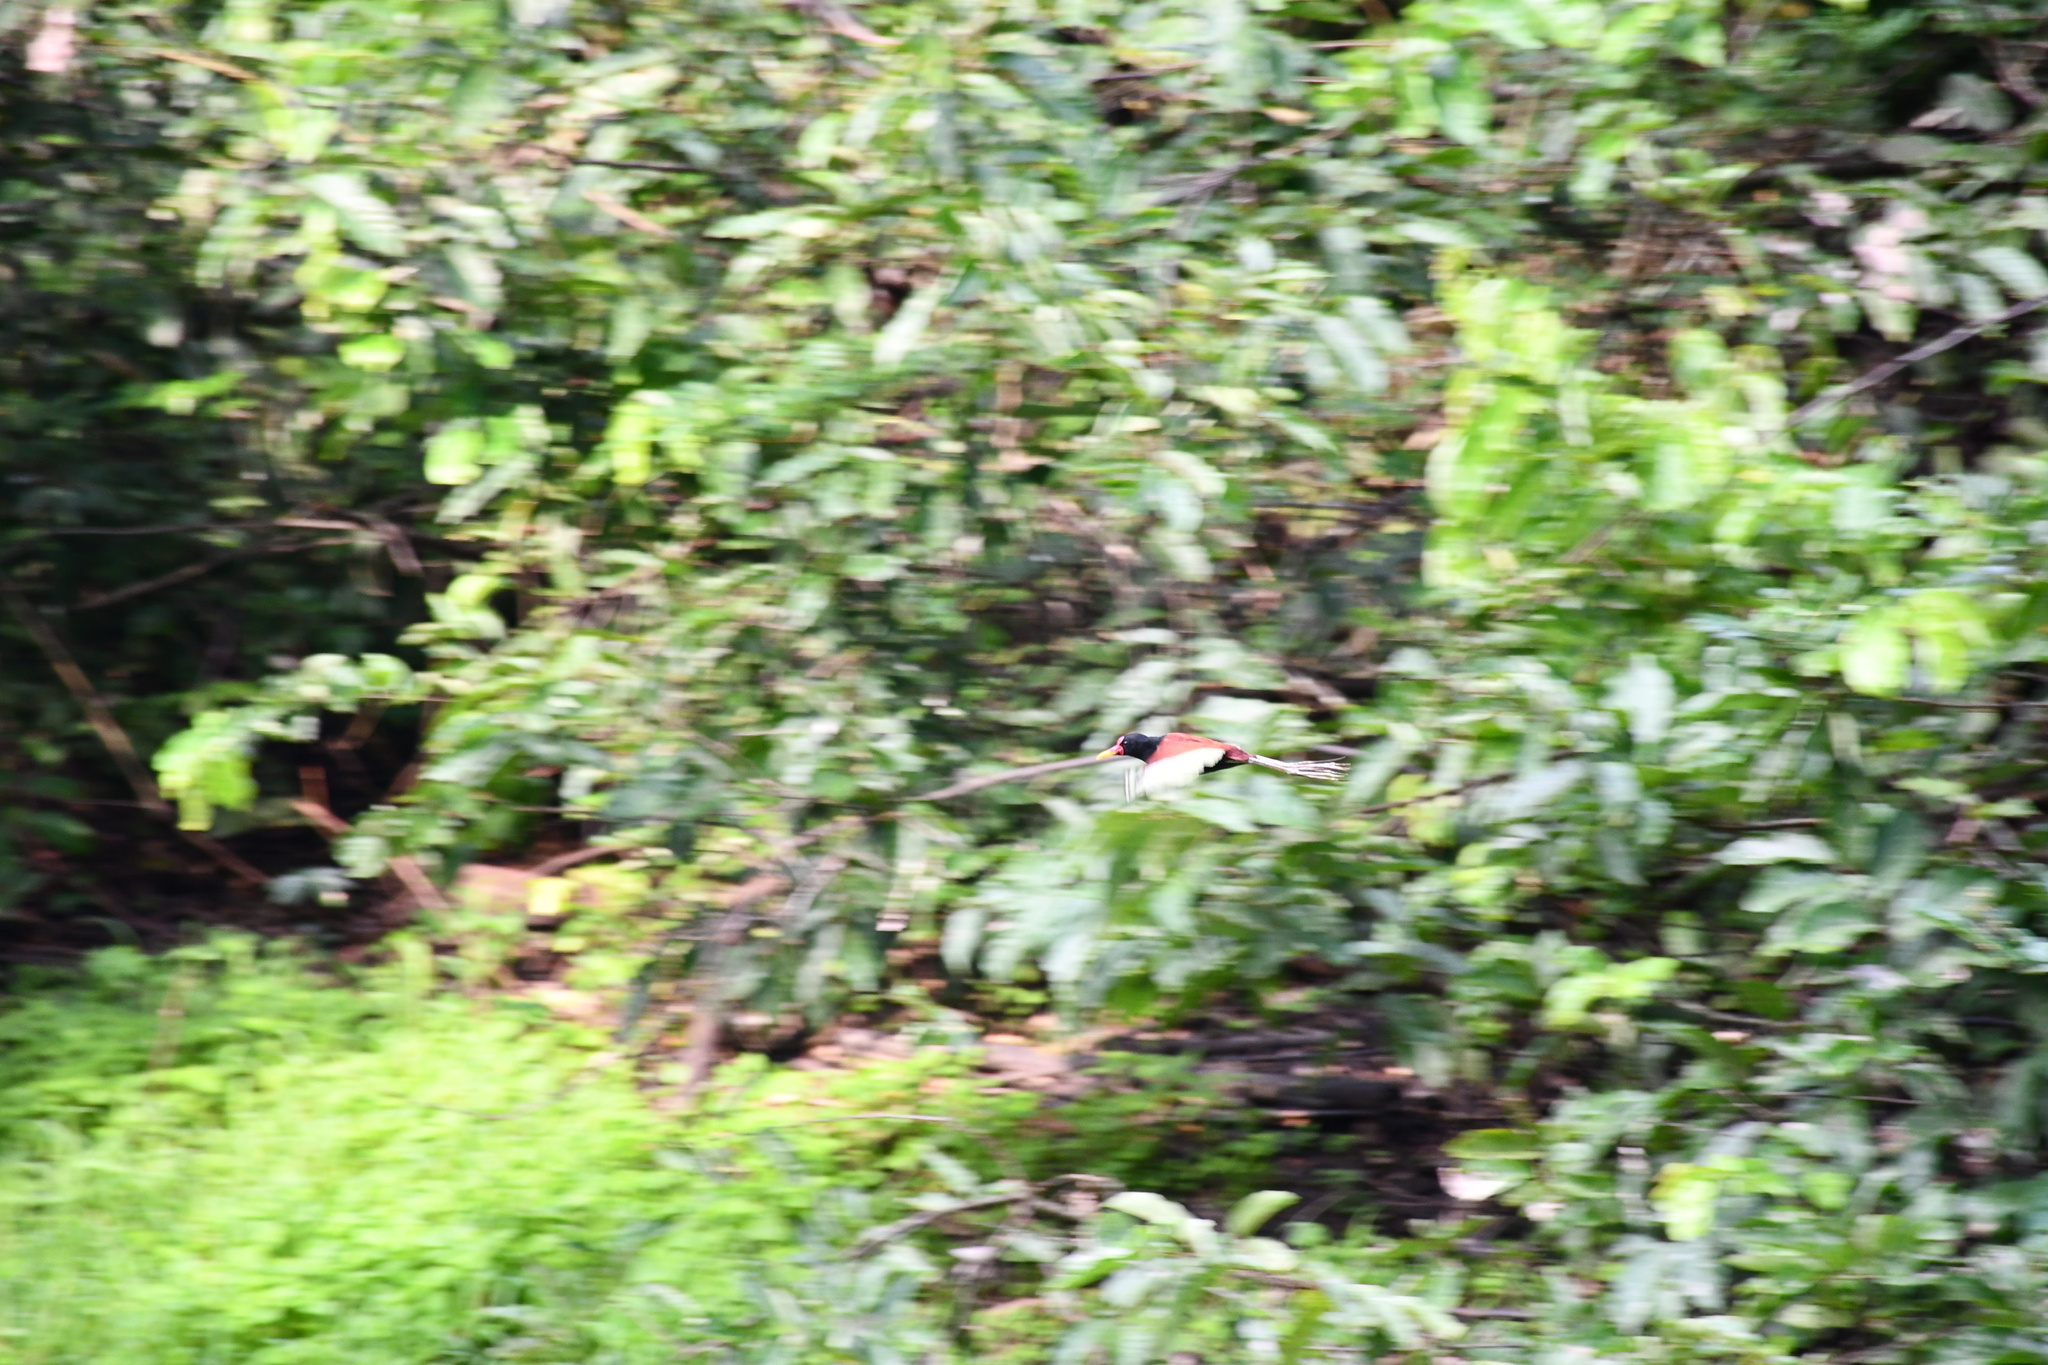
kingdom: Animalia
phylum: Chordata
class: Aves
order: Charadriiformes
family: Jacanidae
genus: Jacana
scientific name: Jacana jacana
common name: Wattled jacana
